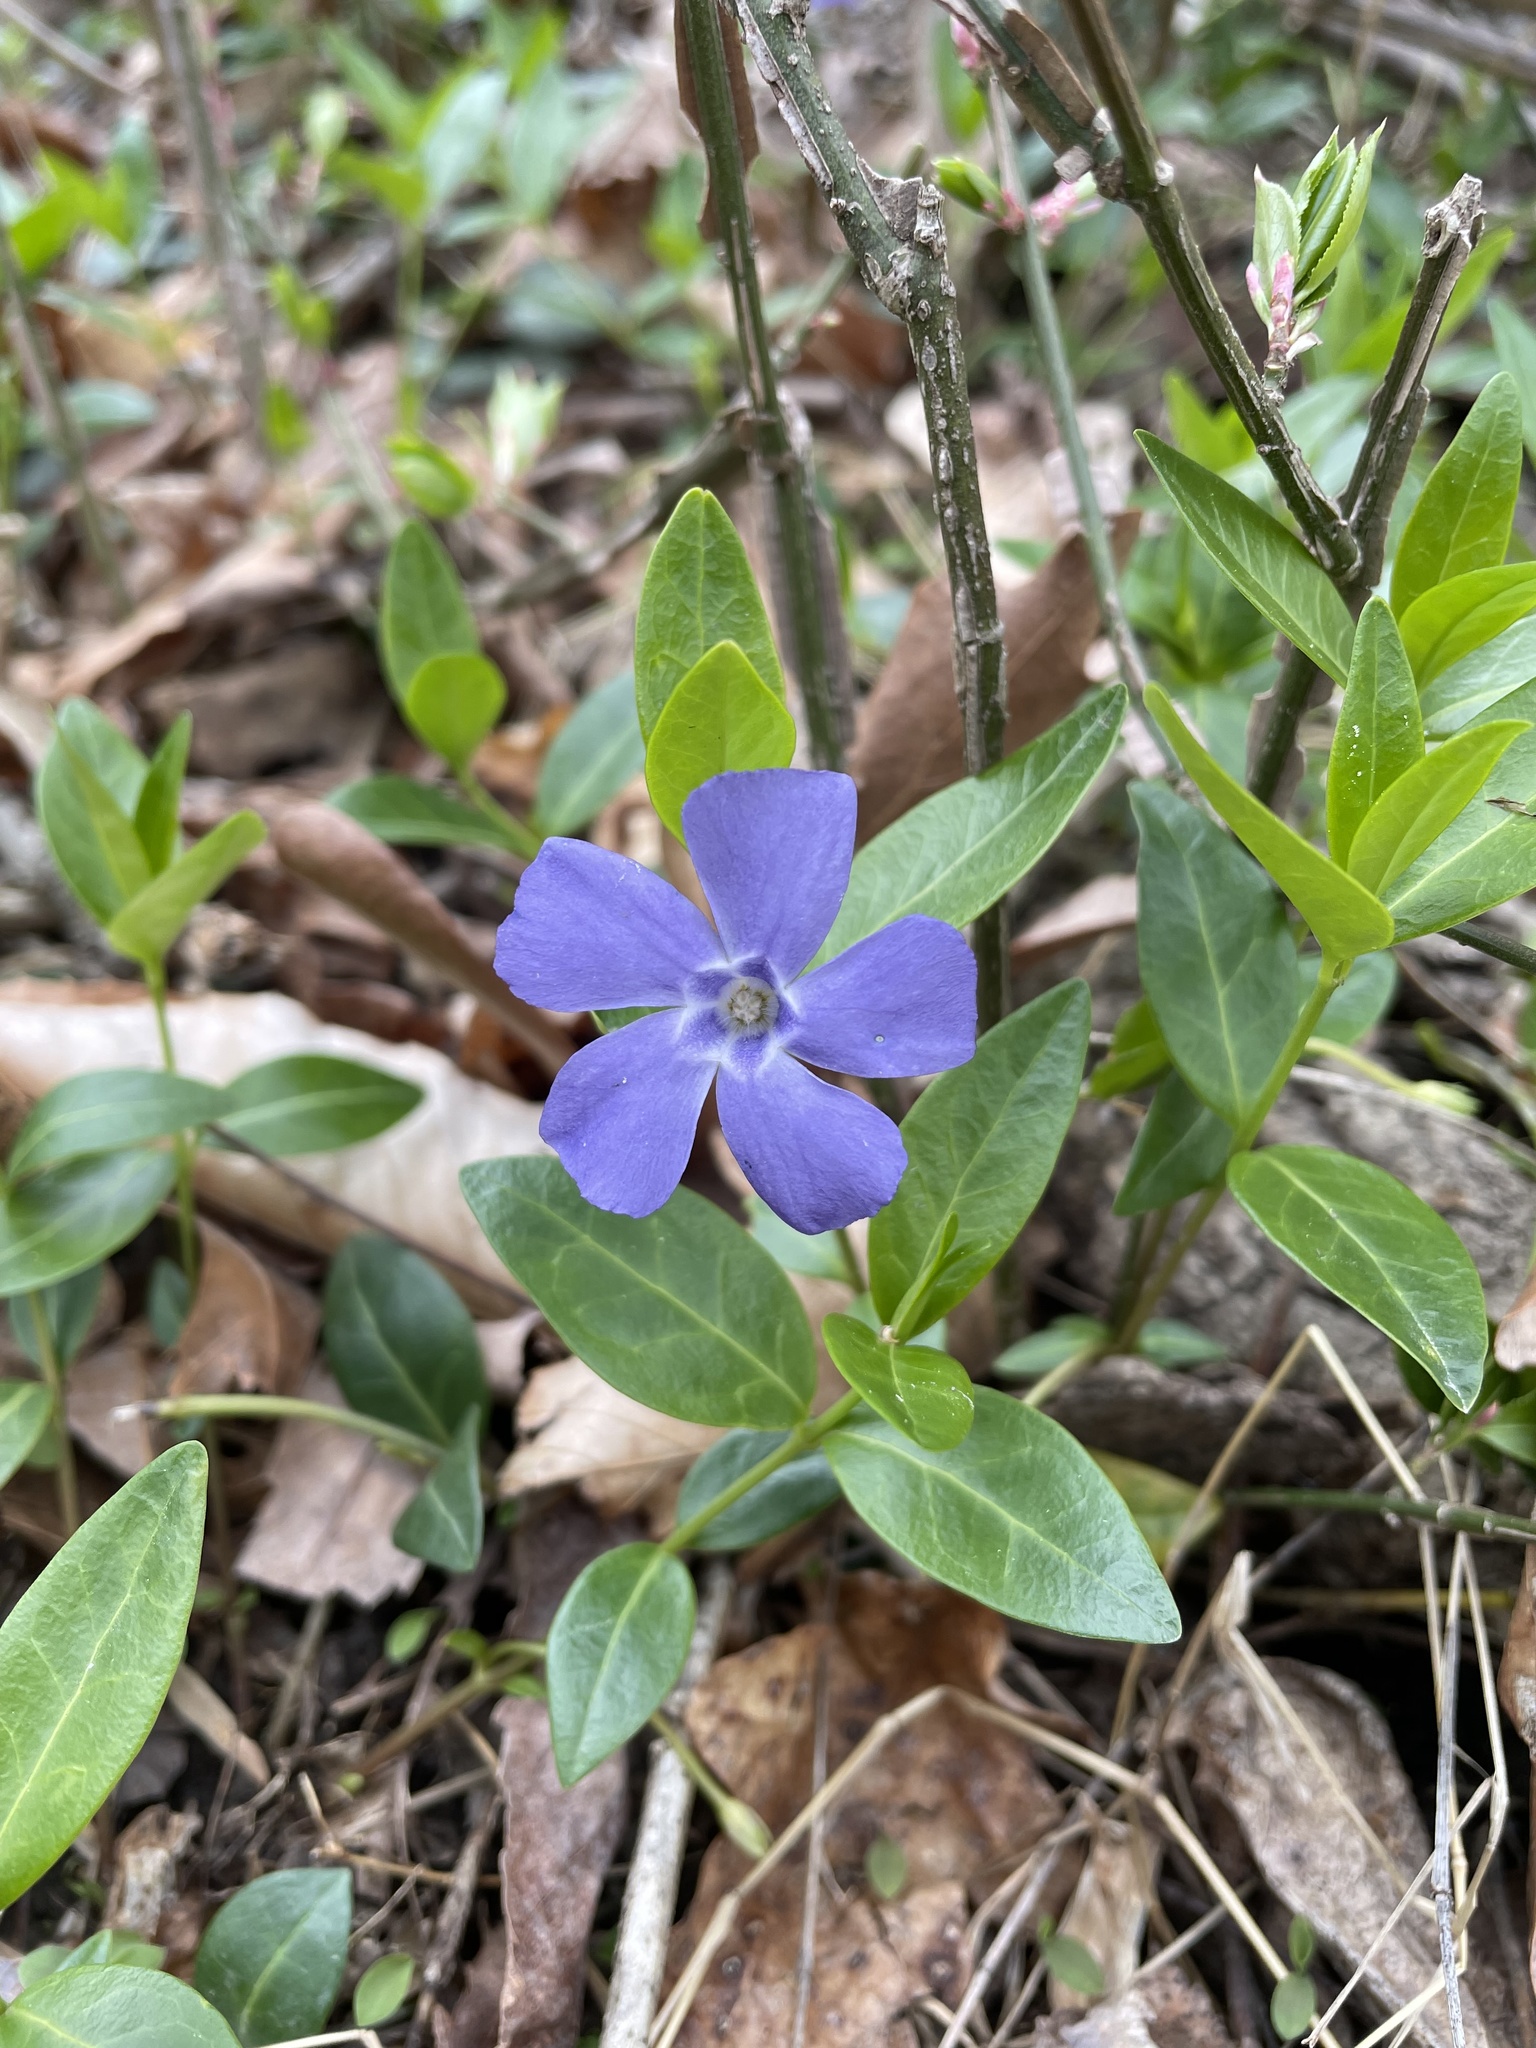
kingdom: Plantae
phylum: Tracheophyta
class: Magnoliopsida
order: Gentianales
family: Apocynaceae
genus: Vinca
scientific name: Vinca minor
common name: Lesser periwinkle
